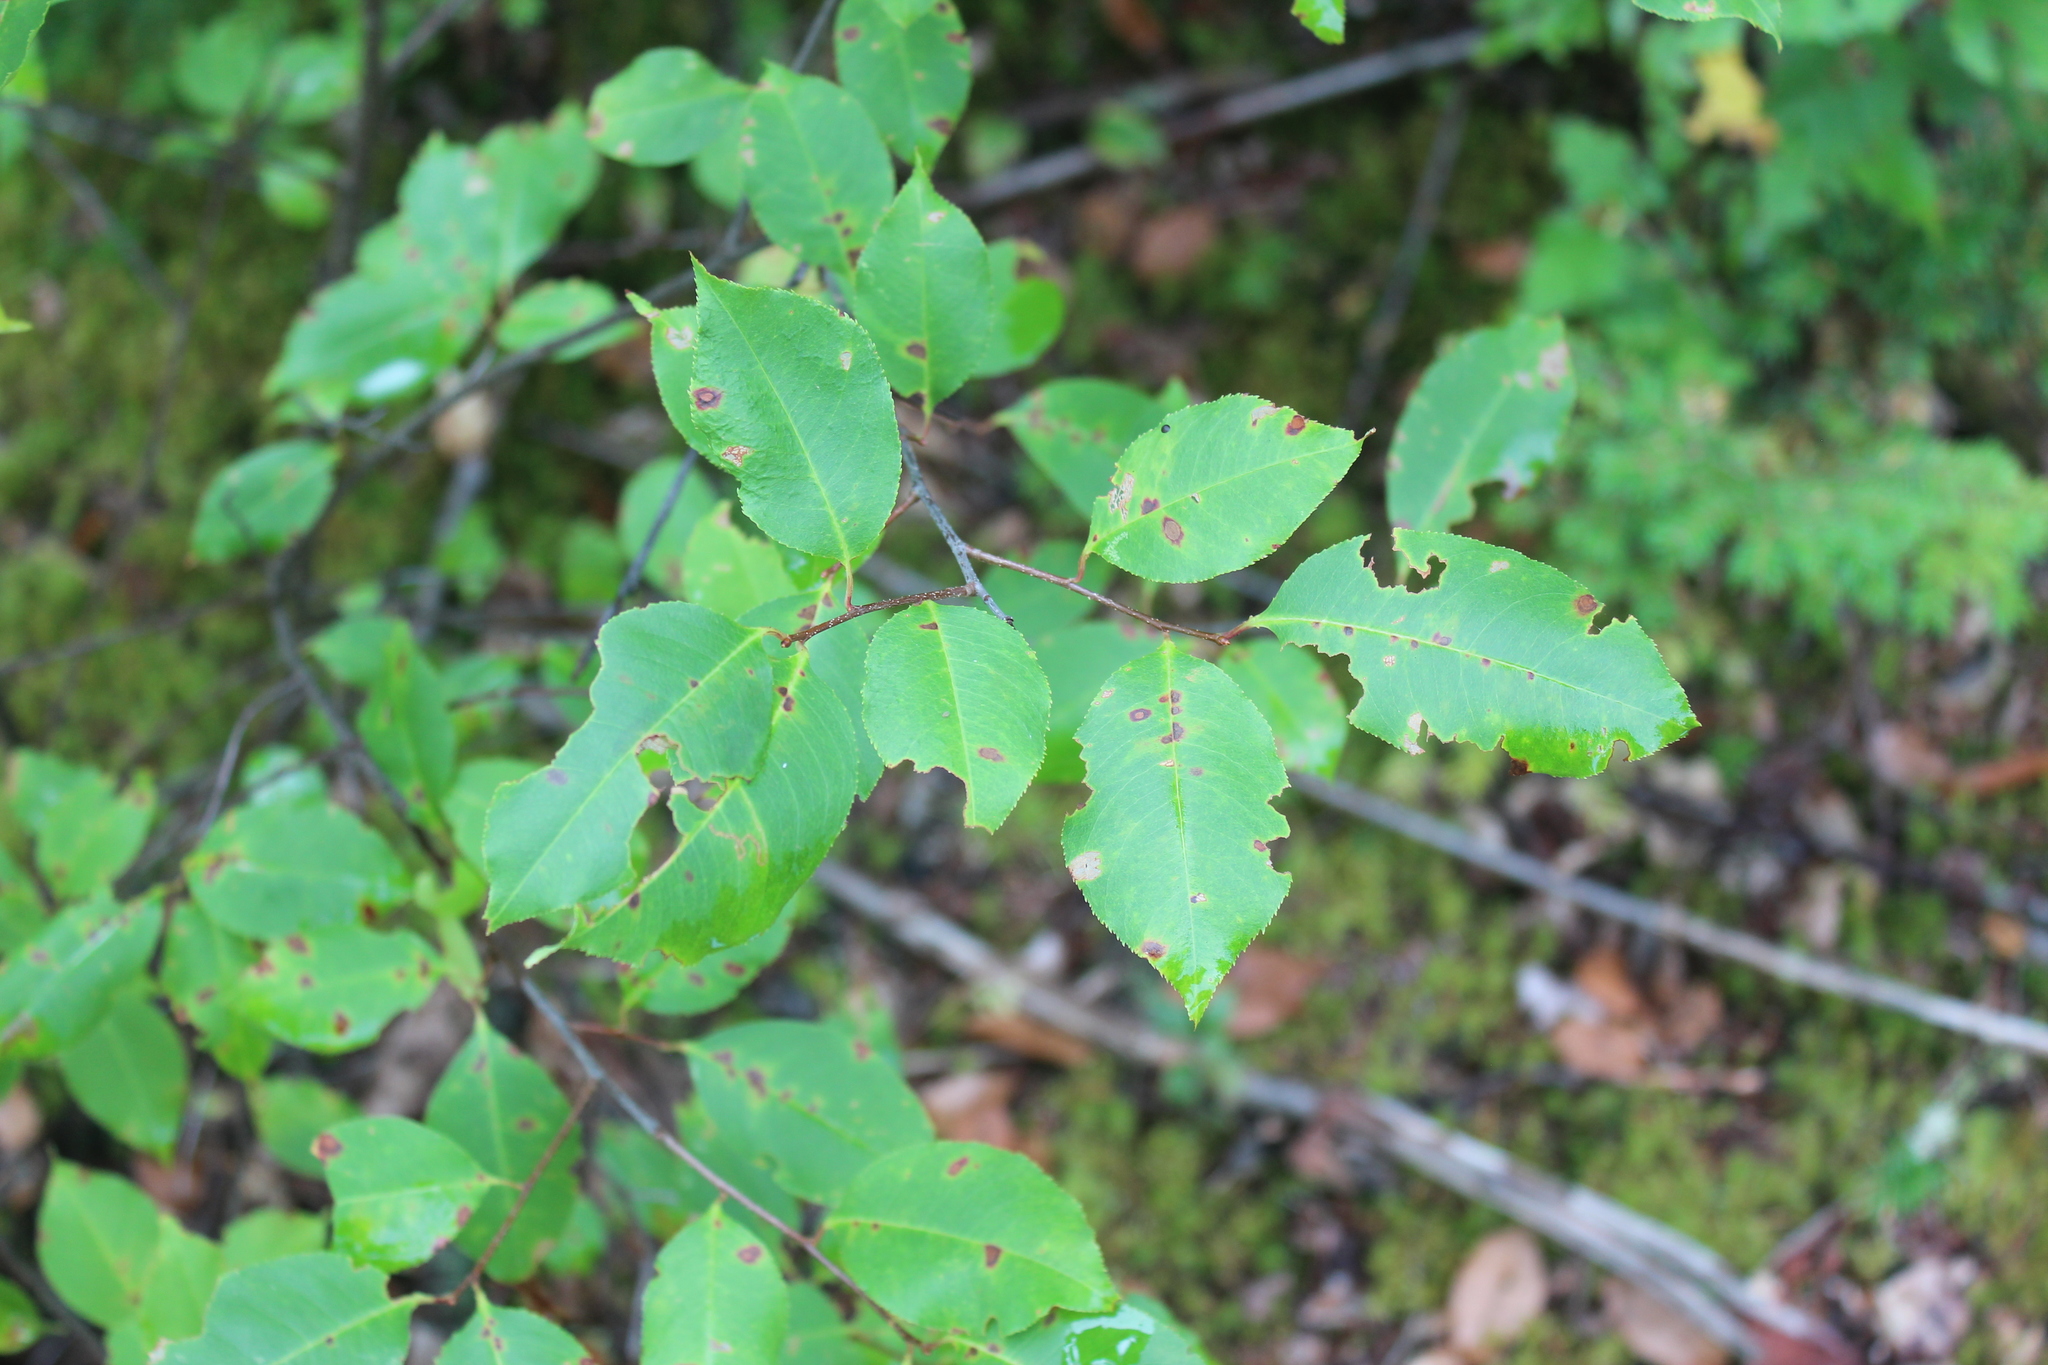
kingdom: Plantae
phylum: Tracheophyta
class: Magnoliopsida
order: Rosales
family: Rosaceae
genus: Prunus
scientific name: Prunus serotina
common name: Black cherry
